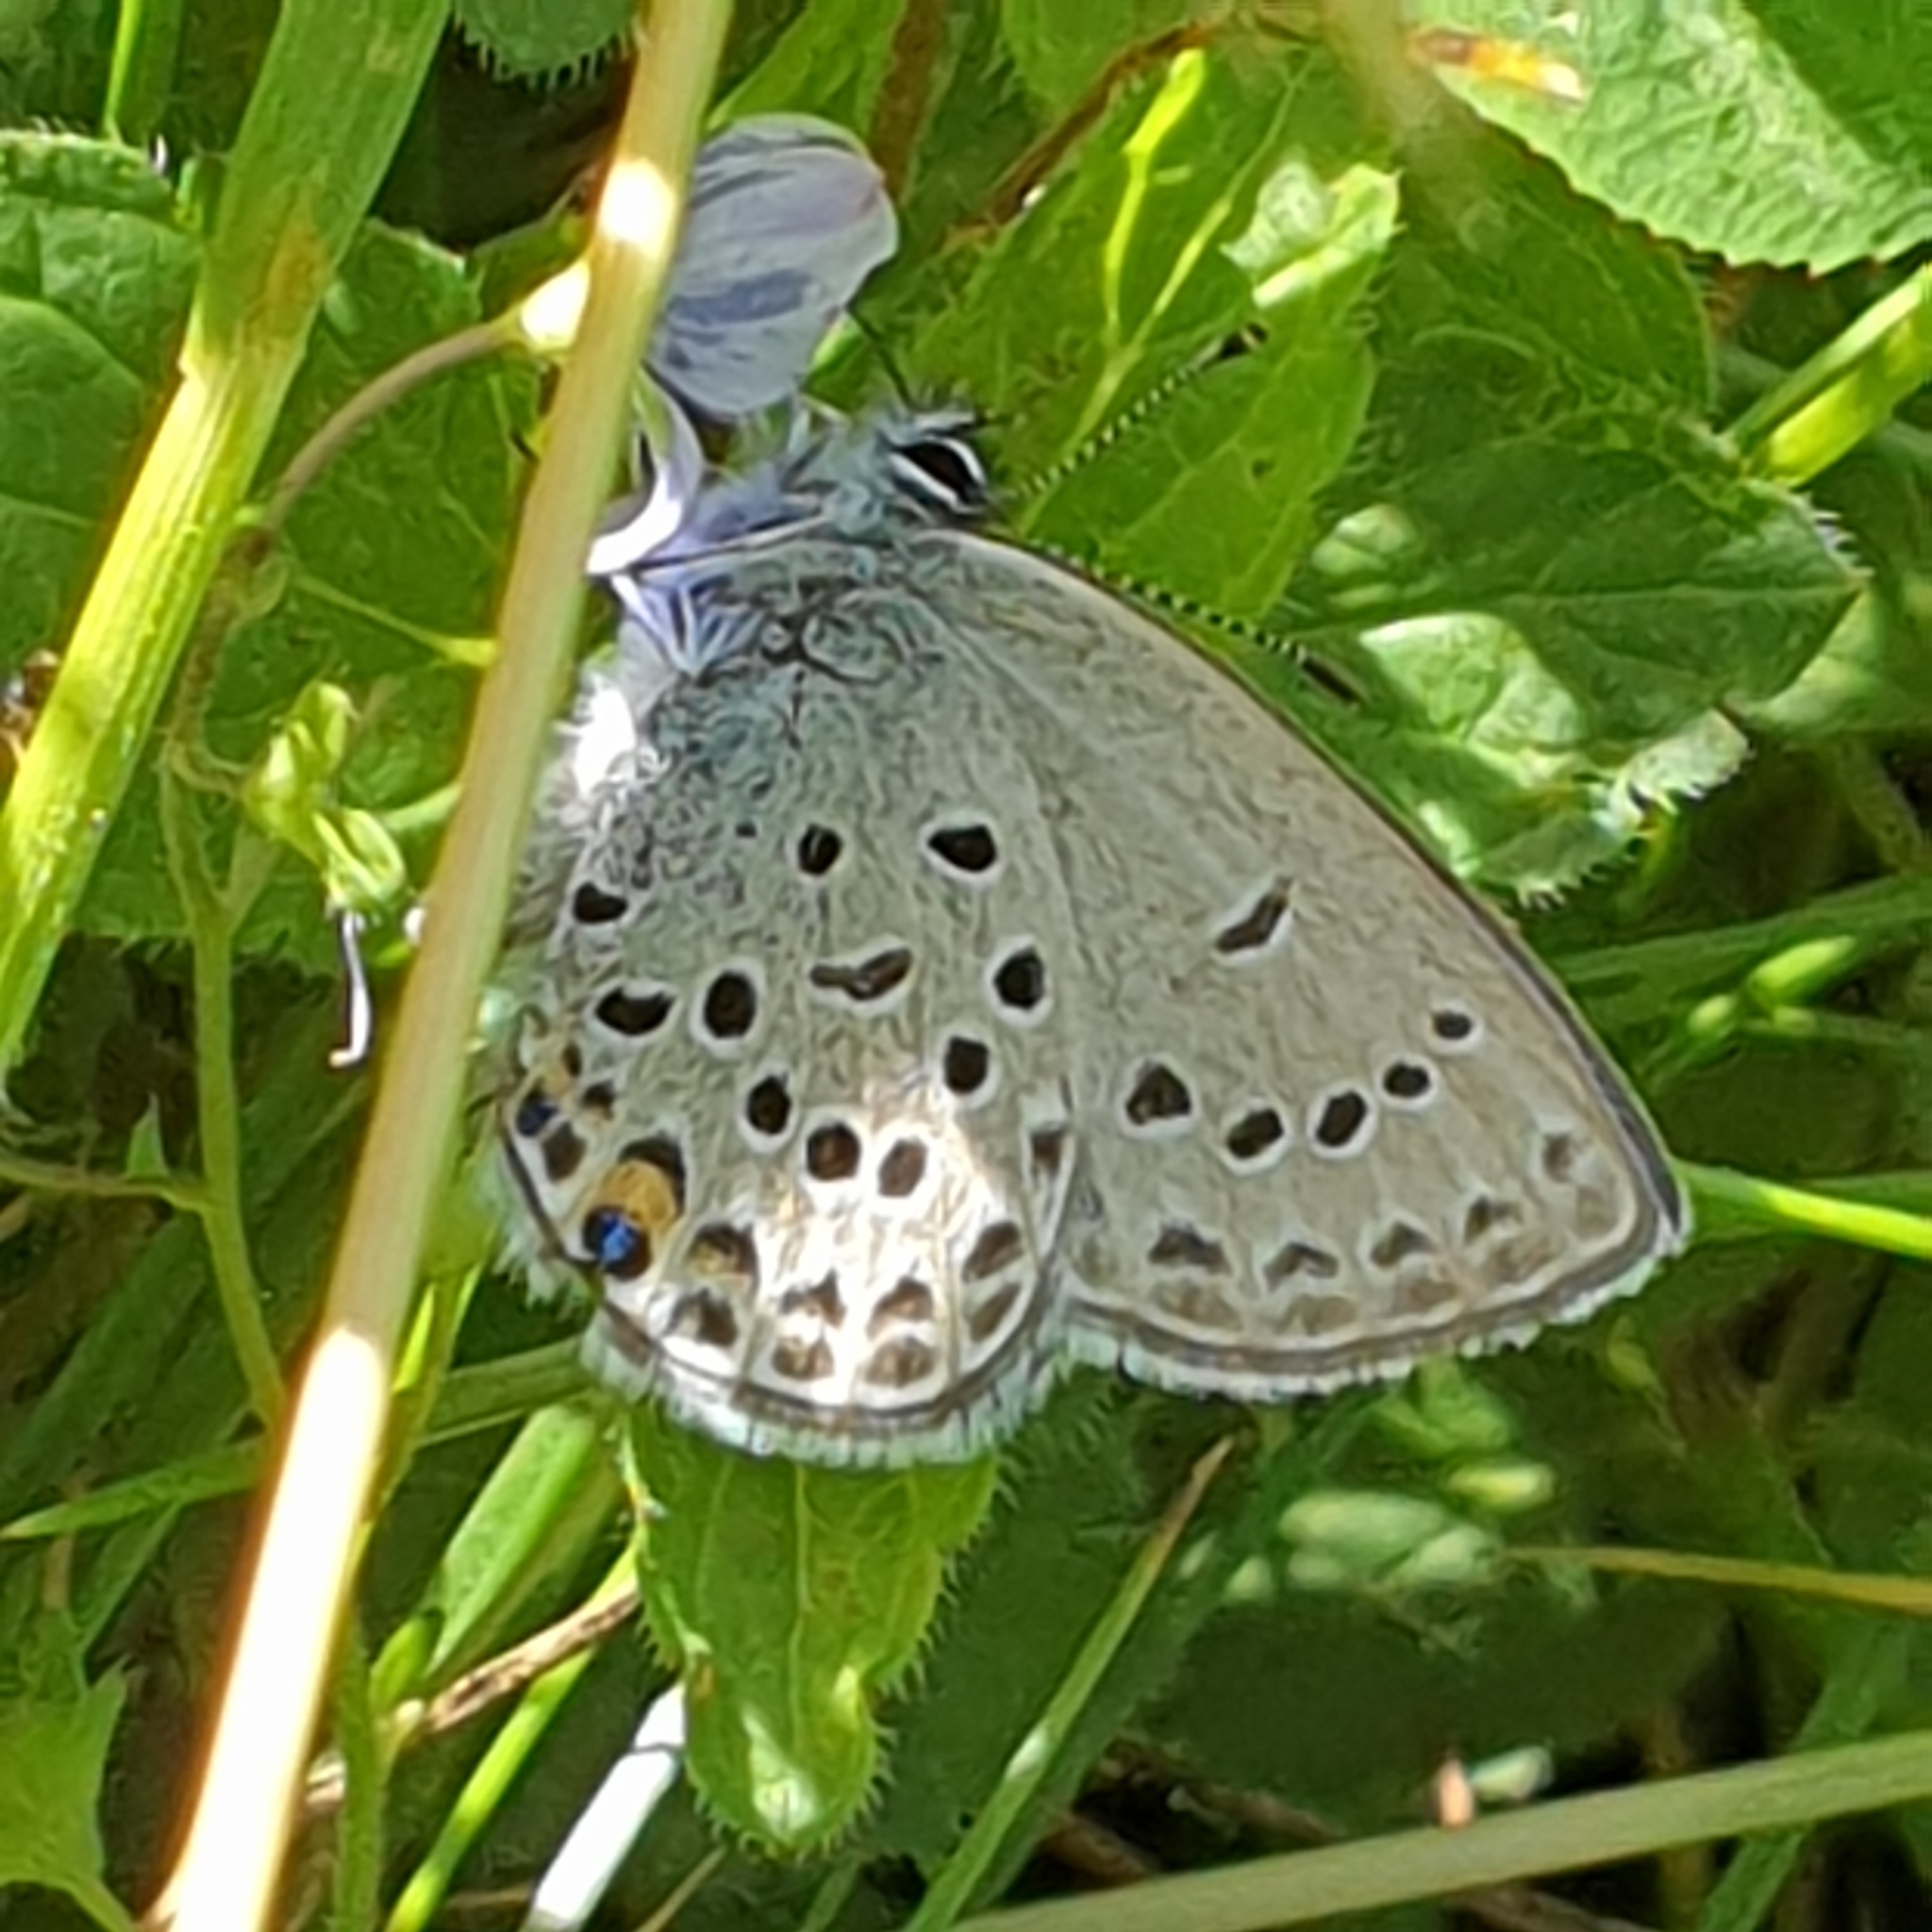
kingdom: Animalia
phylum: Arthropoda
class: Insecta
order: Lepidoptera
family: Lycaenidae
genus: Vacciniina
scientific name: Vacciniina optilete
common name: Cranberry blue
